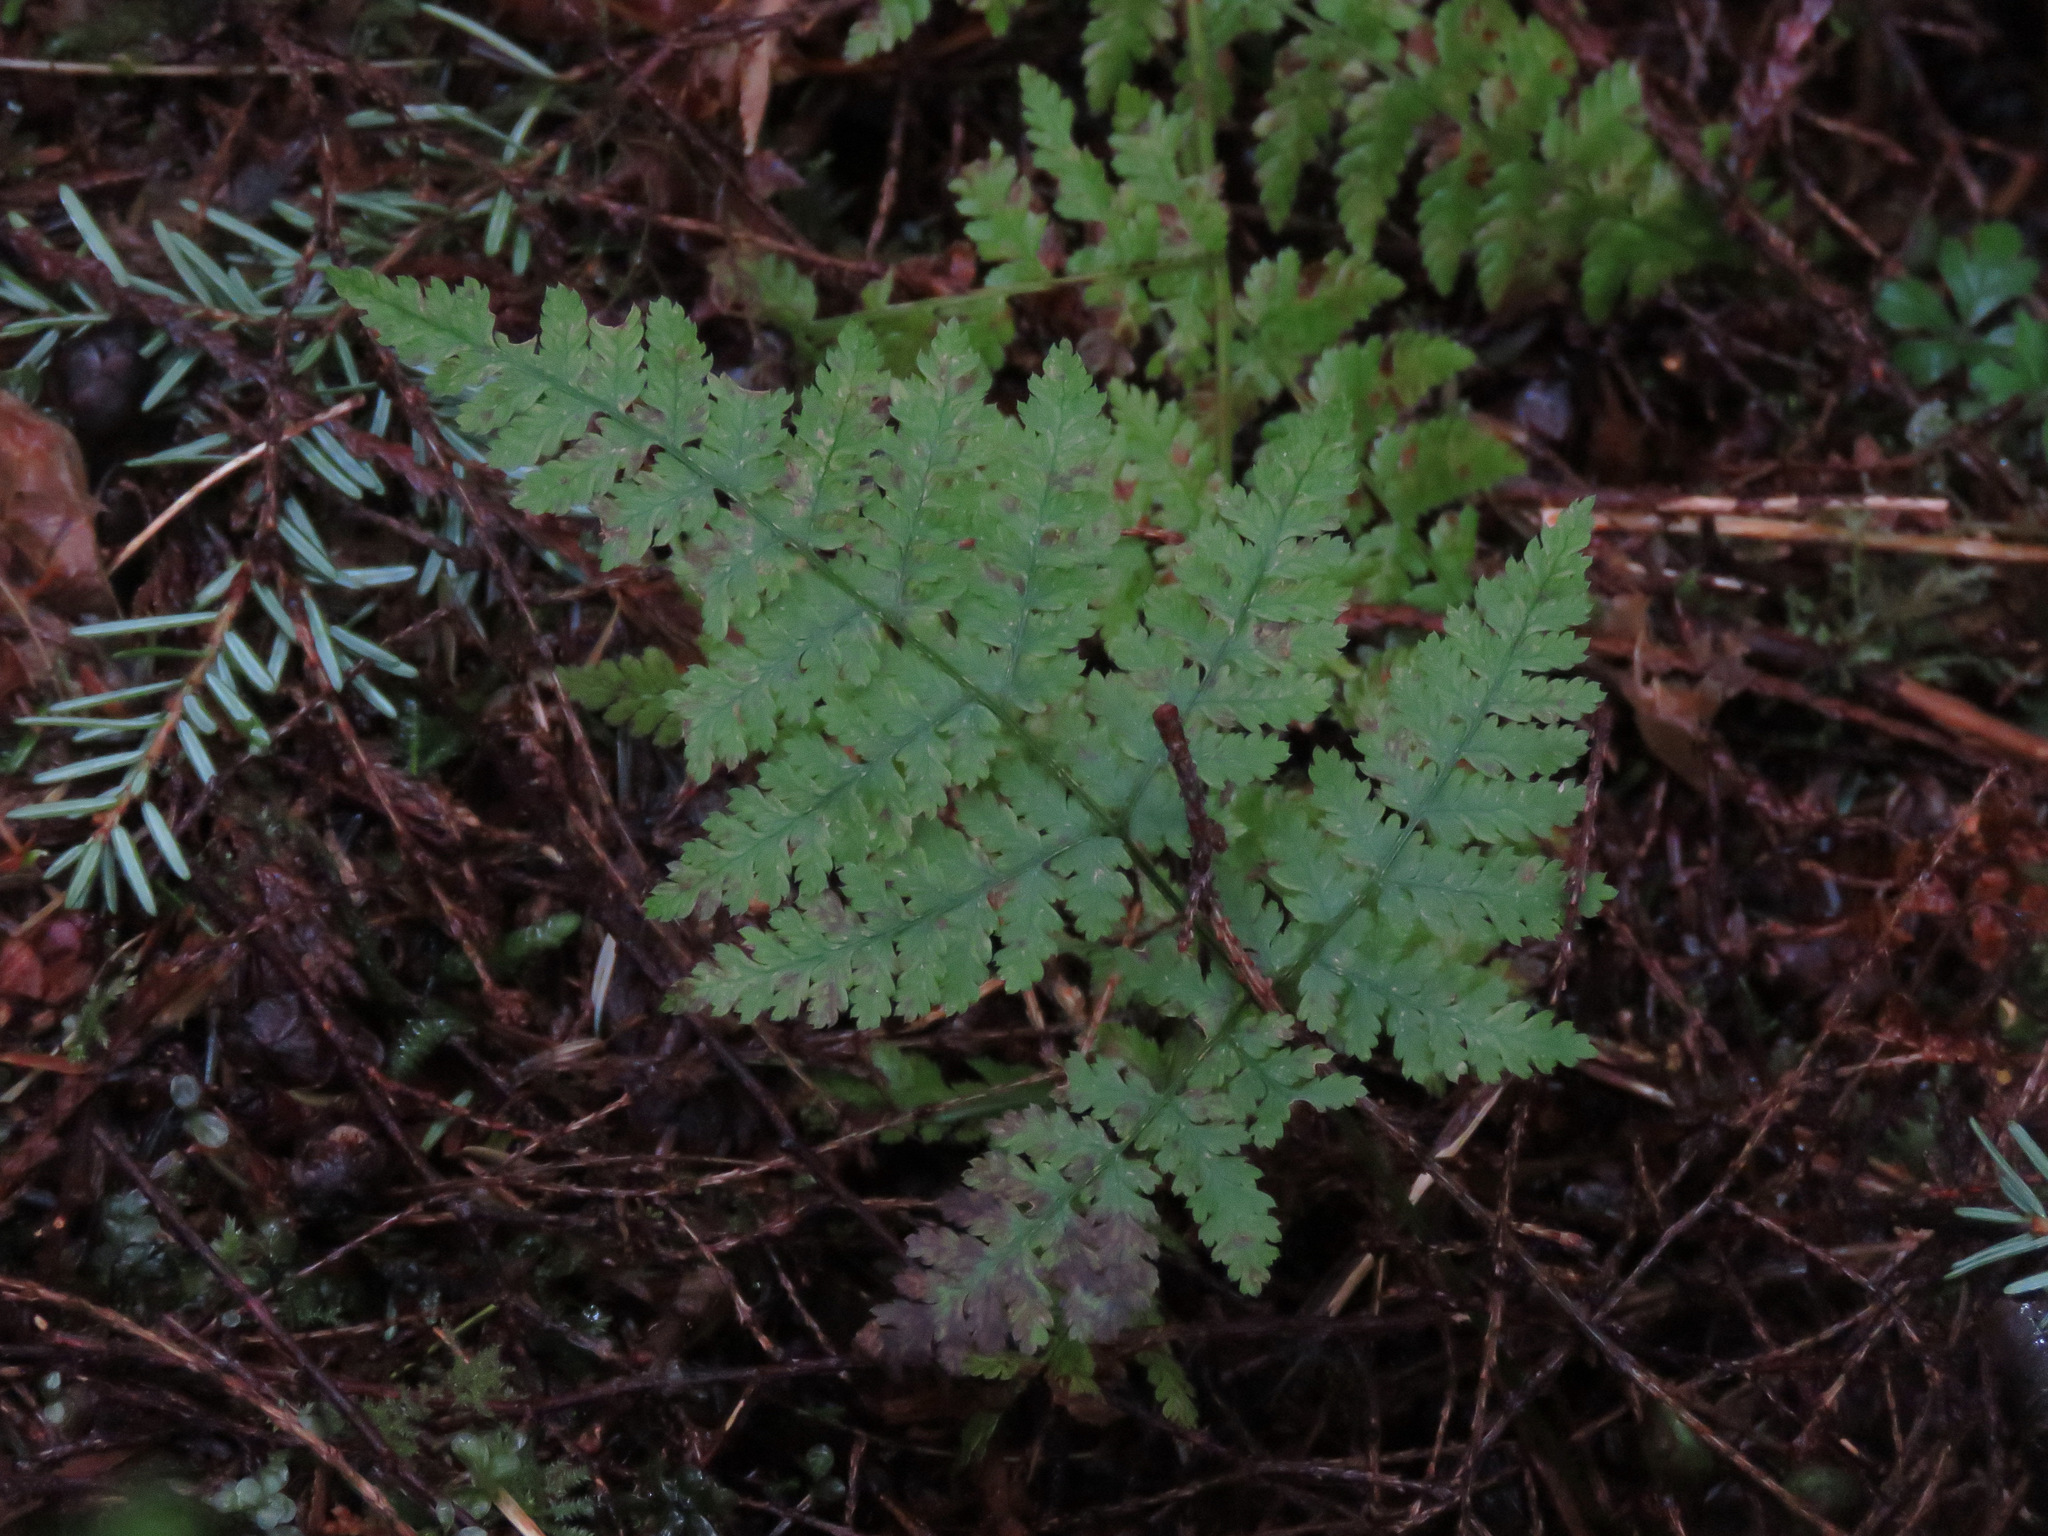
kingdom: Plantae
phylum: Tracheophyta
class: Polypodiopsida
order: Polypodiales
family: Dryopteridaceae
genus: Dryopteris
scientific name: Dryopteris expansa
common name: Northern buckler fern
